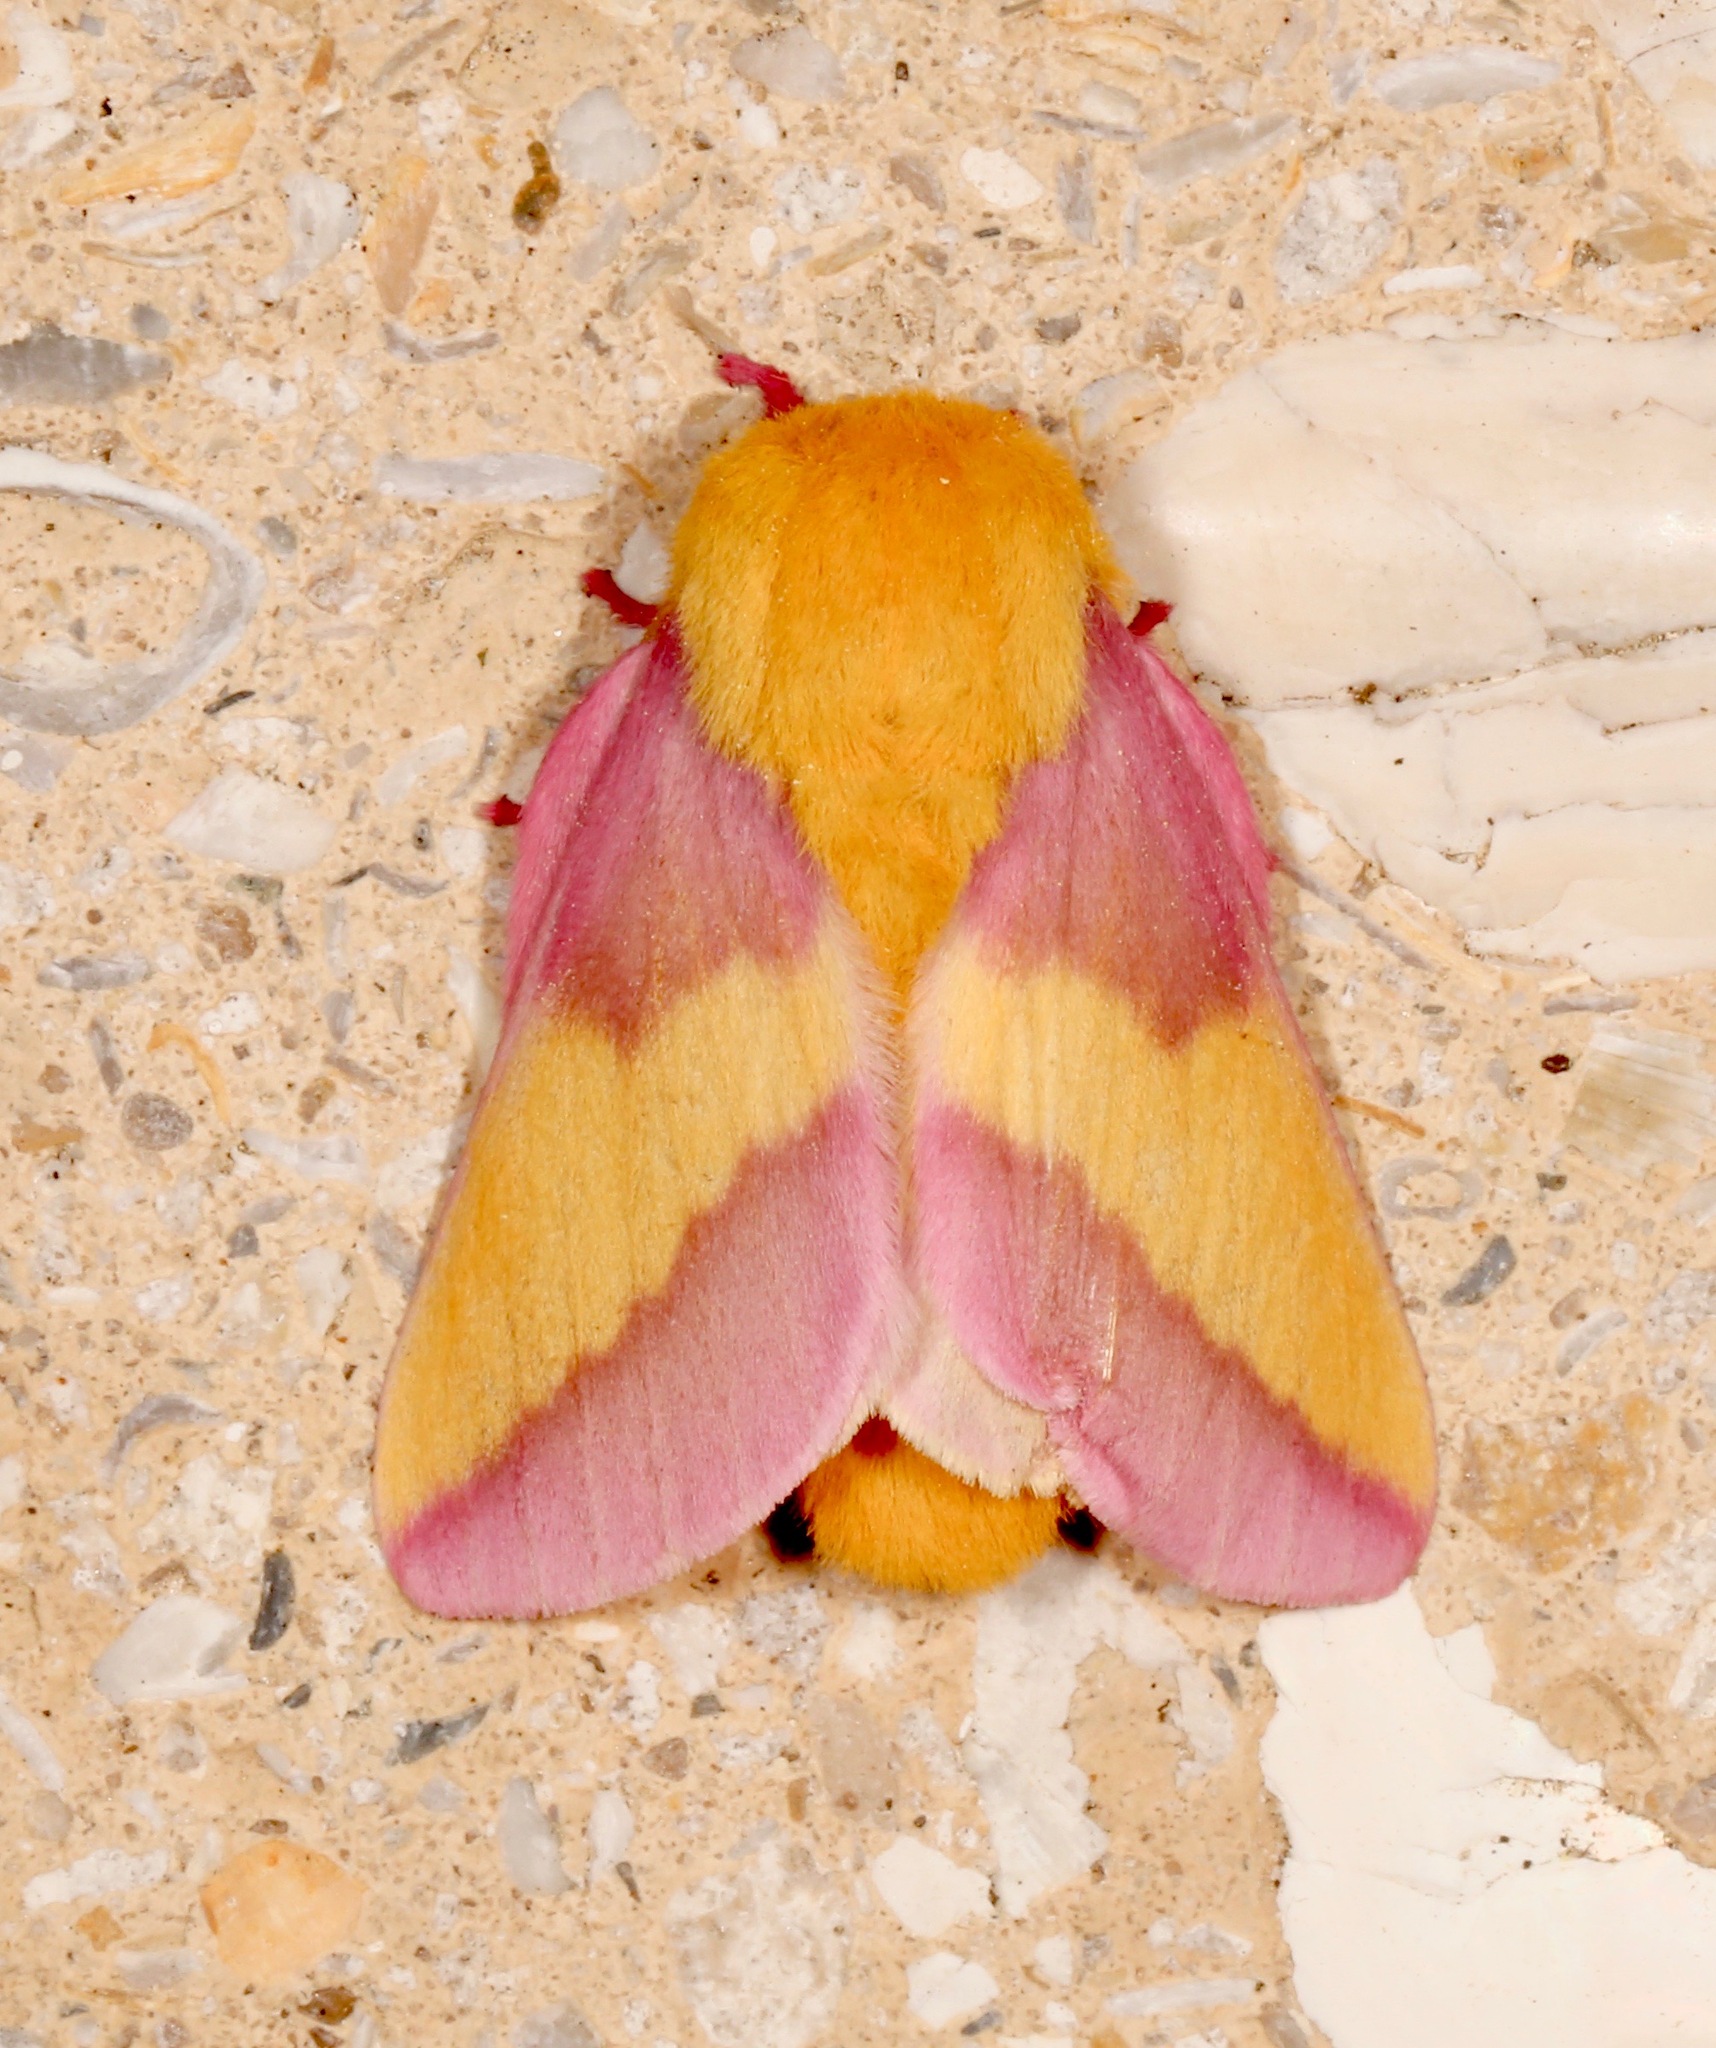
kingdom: Animalia
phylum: Arthropoda
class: Insecta
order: Lepidoptera
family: Saturniidae
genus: Dryocampa
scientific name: Dryocampa rubicunda
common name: Rosy maple moth
